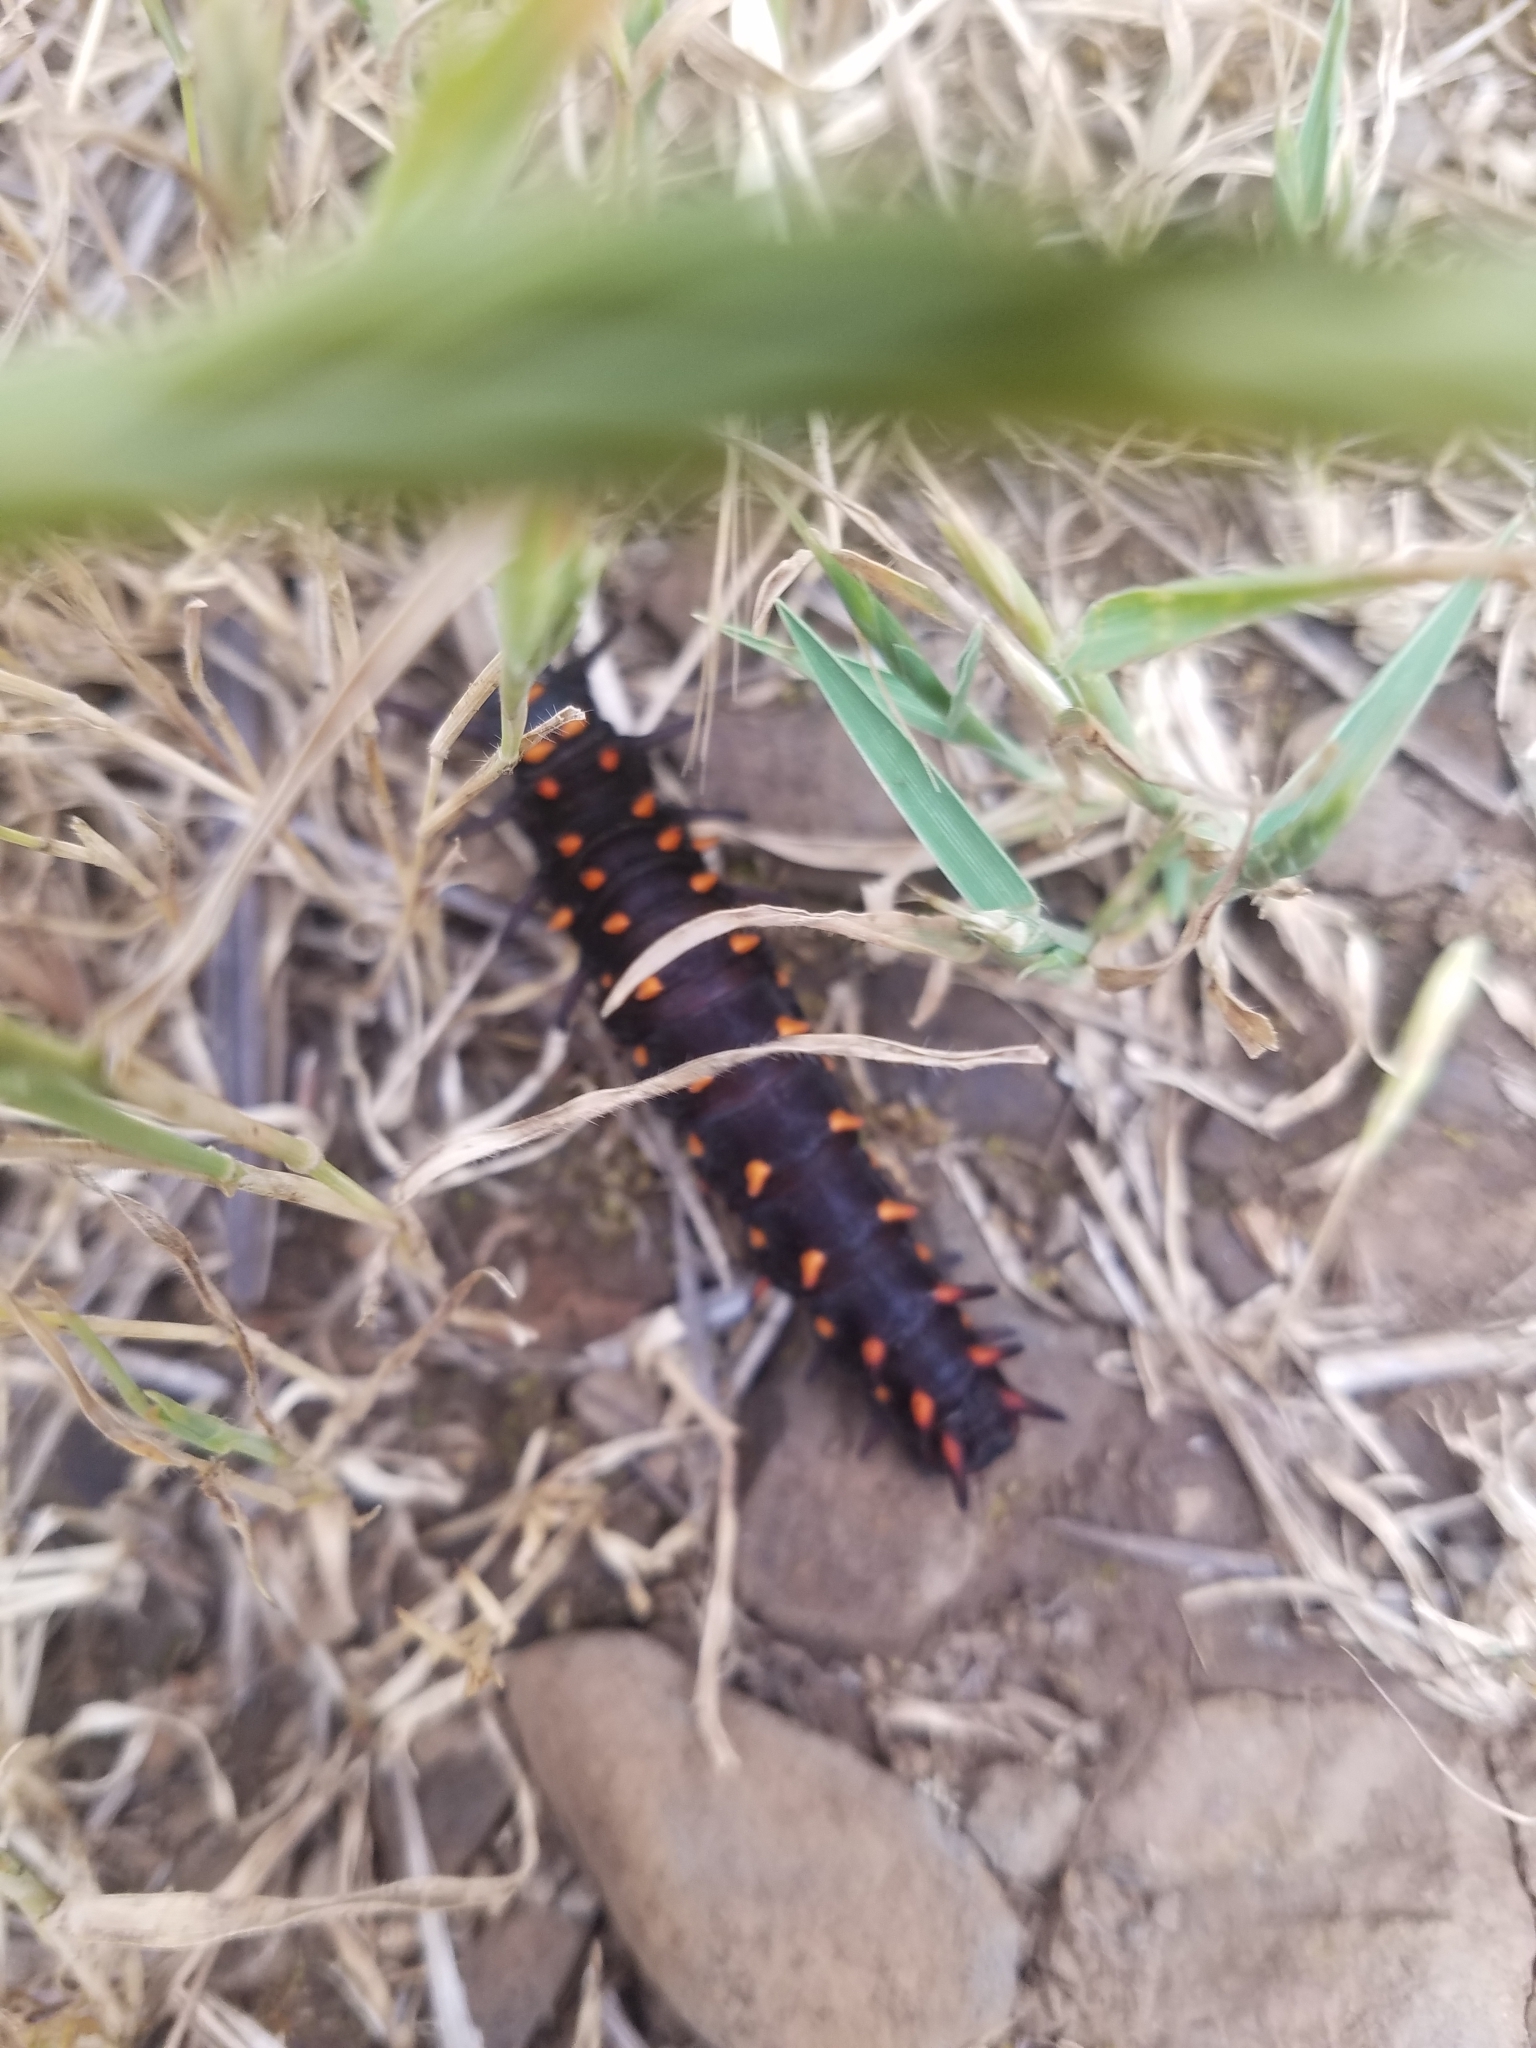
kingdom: Animalia
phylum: Arthropoda
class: Insecta
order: Lepidoptera
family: Papilionidae
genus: Battus
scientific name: Battus philenor
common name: Pipevine swallowtail
